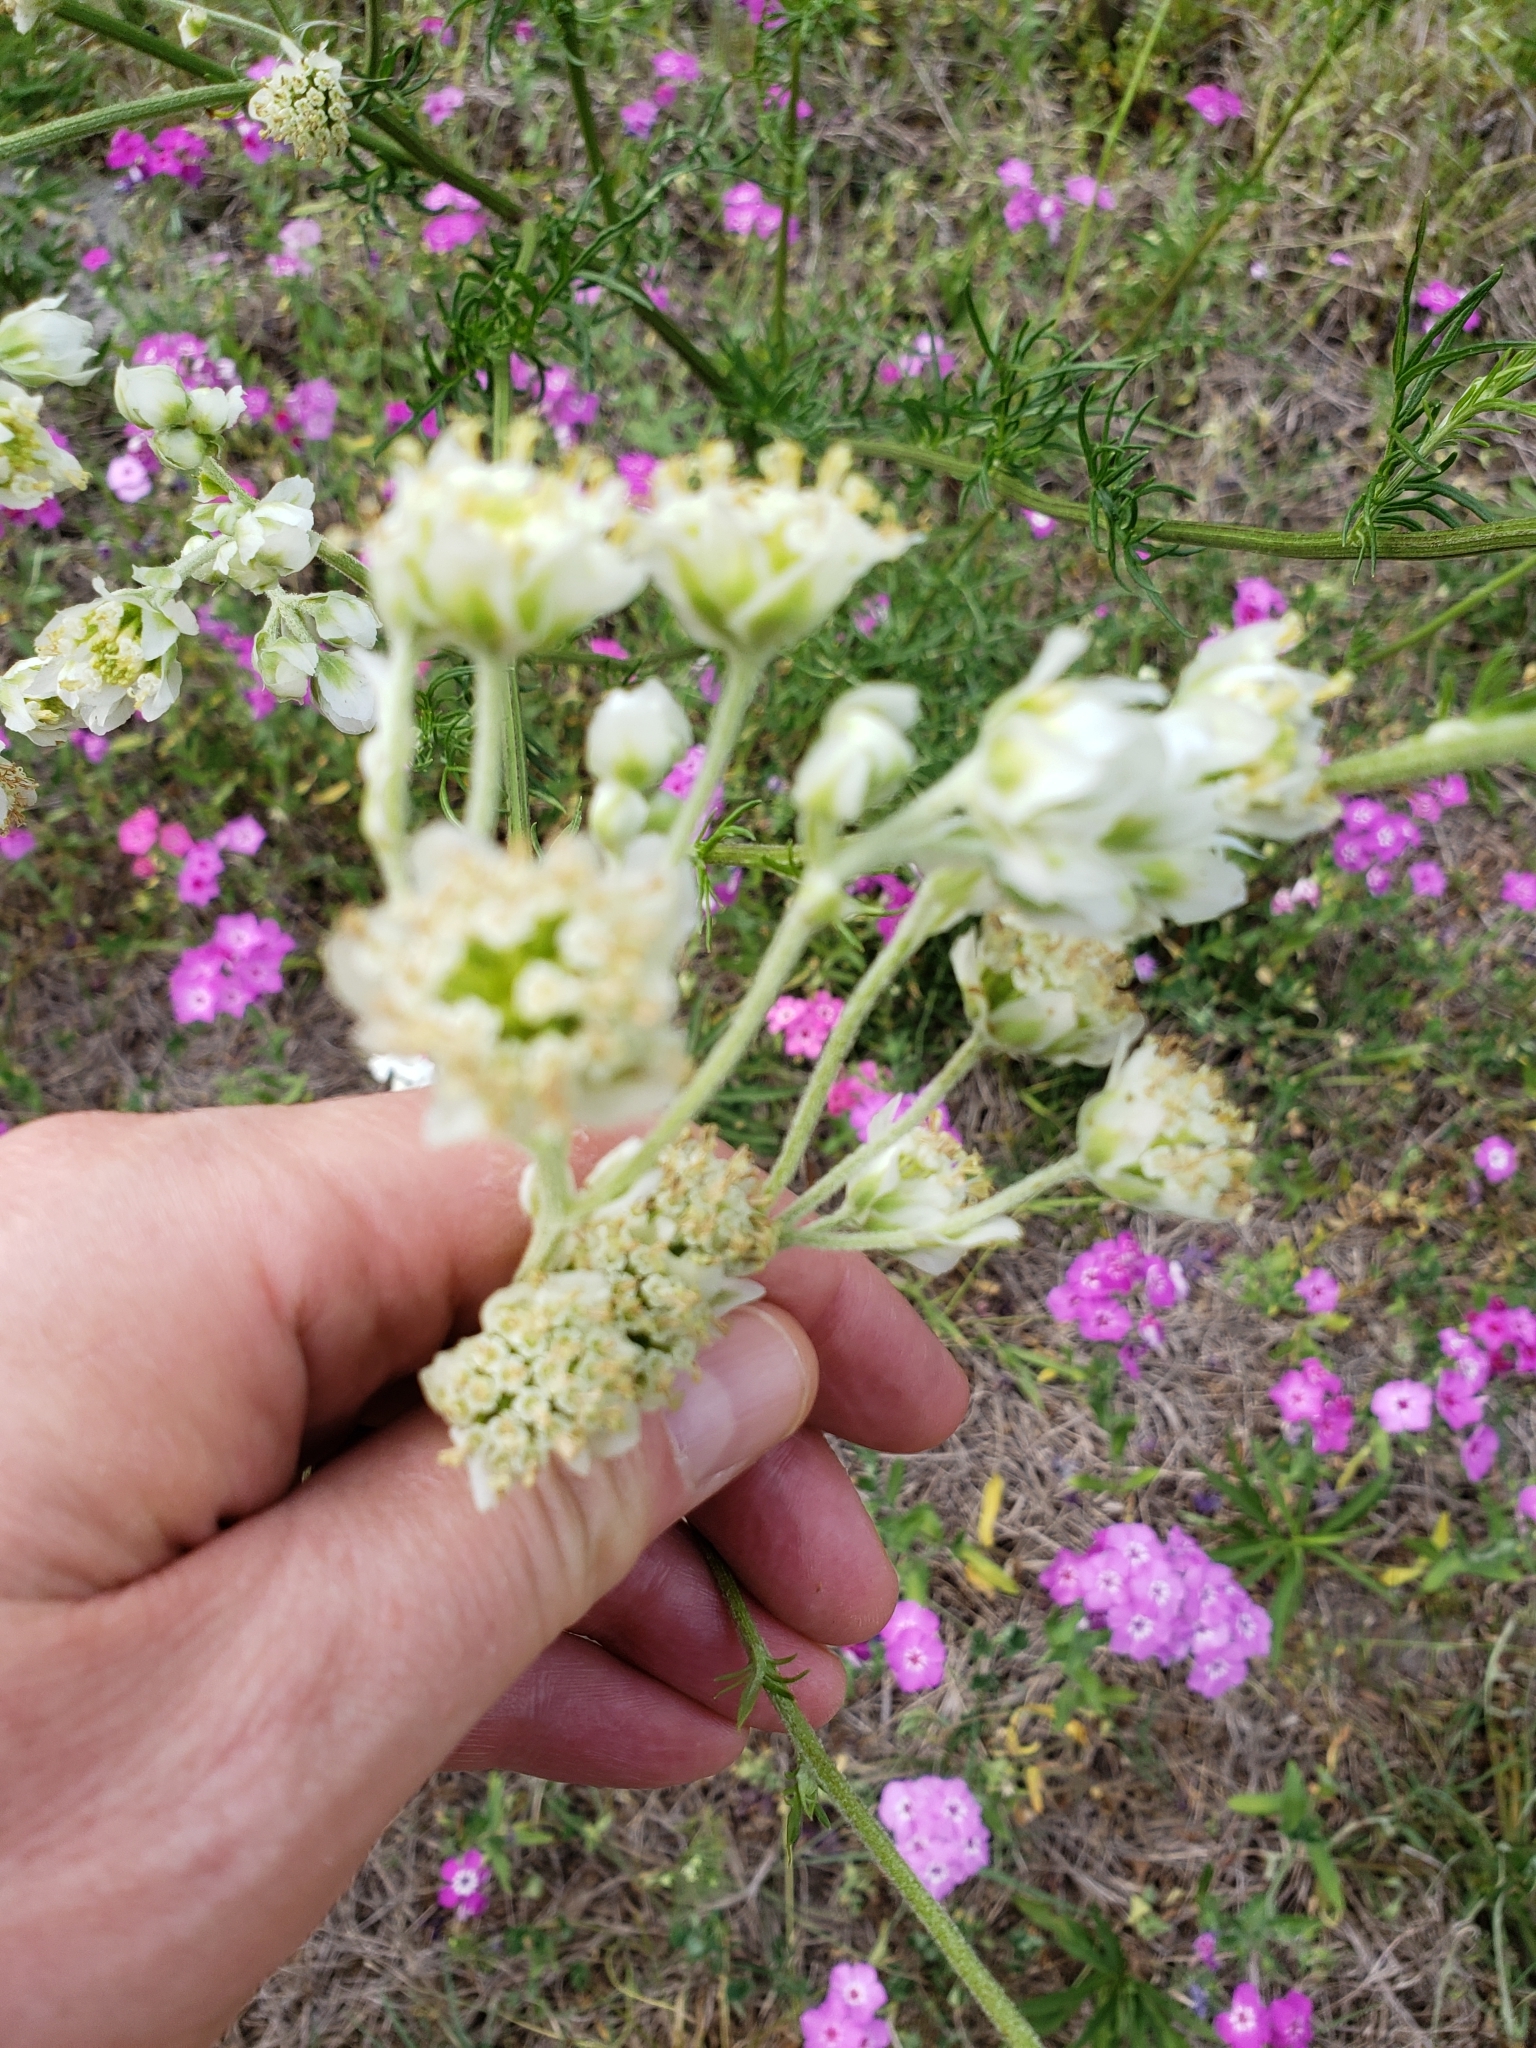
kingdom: Plantae
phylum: Tracheophyta
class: Magnoliopsida
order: Asterales
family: Asteraceae
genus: Hymenopappus
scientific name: Hymenopappus scabiosaeus
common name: Carolina woollywhite
